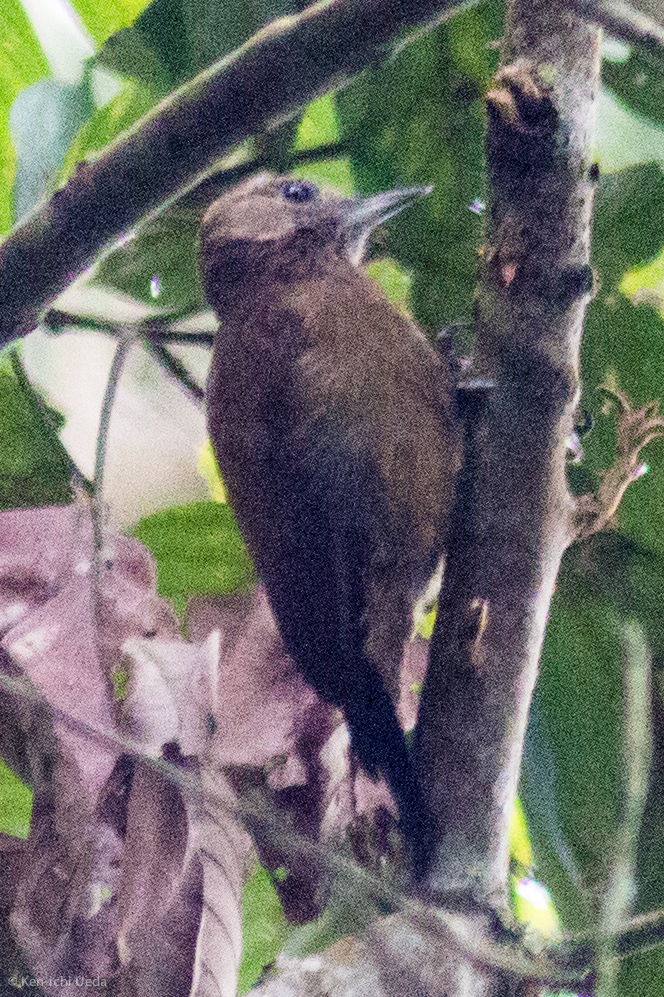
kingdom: Animalia
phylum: Chordata
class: Aves
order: Piciformes
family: Picidae
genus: Leuconotopicus
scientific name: Leuconotopicus fumigatus
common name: Smoky-brown woodpecker
